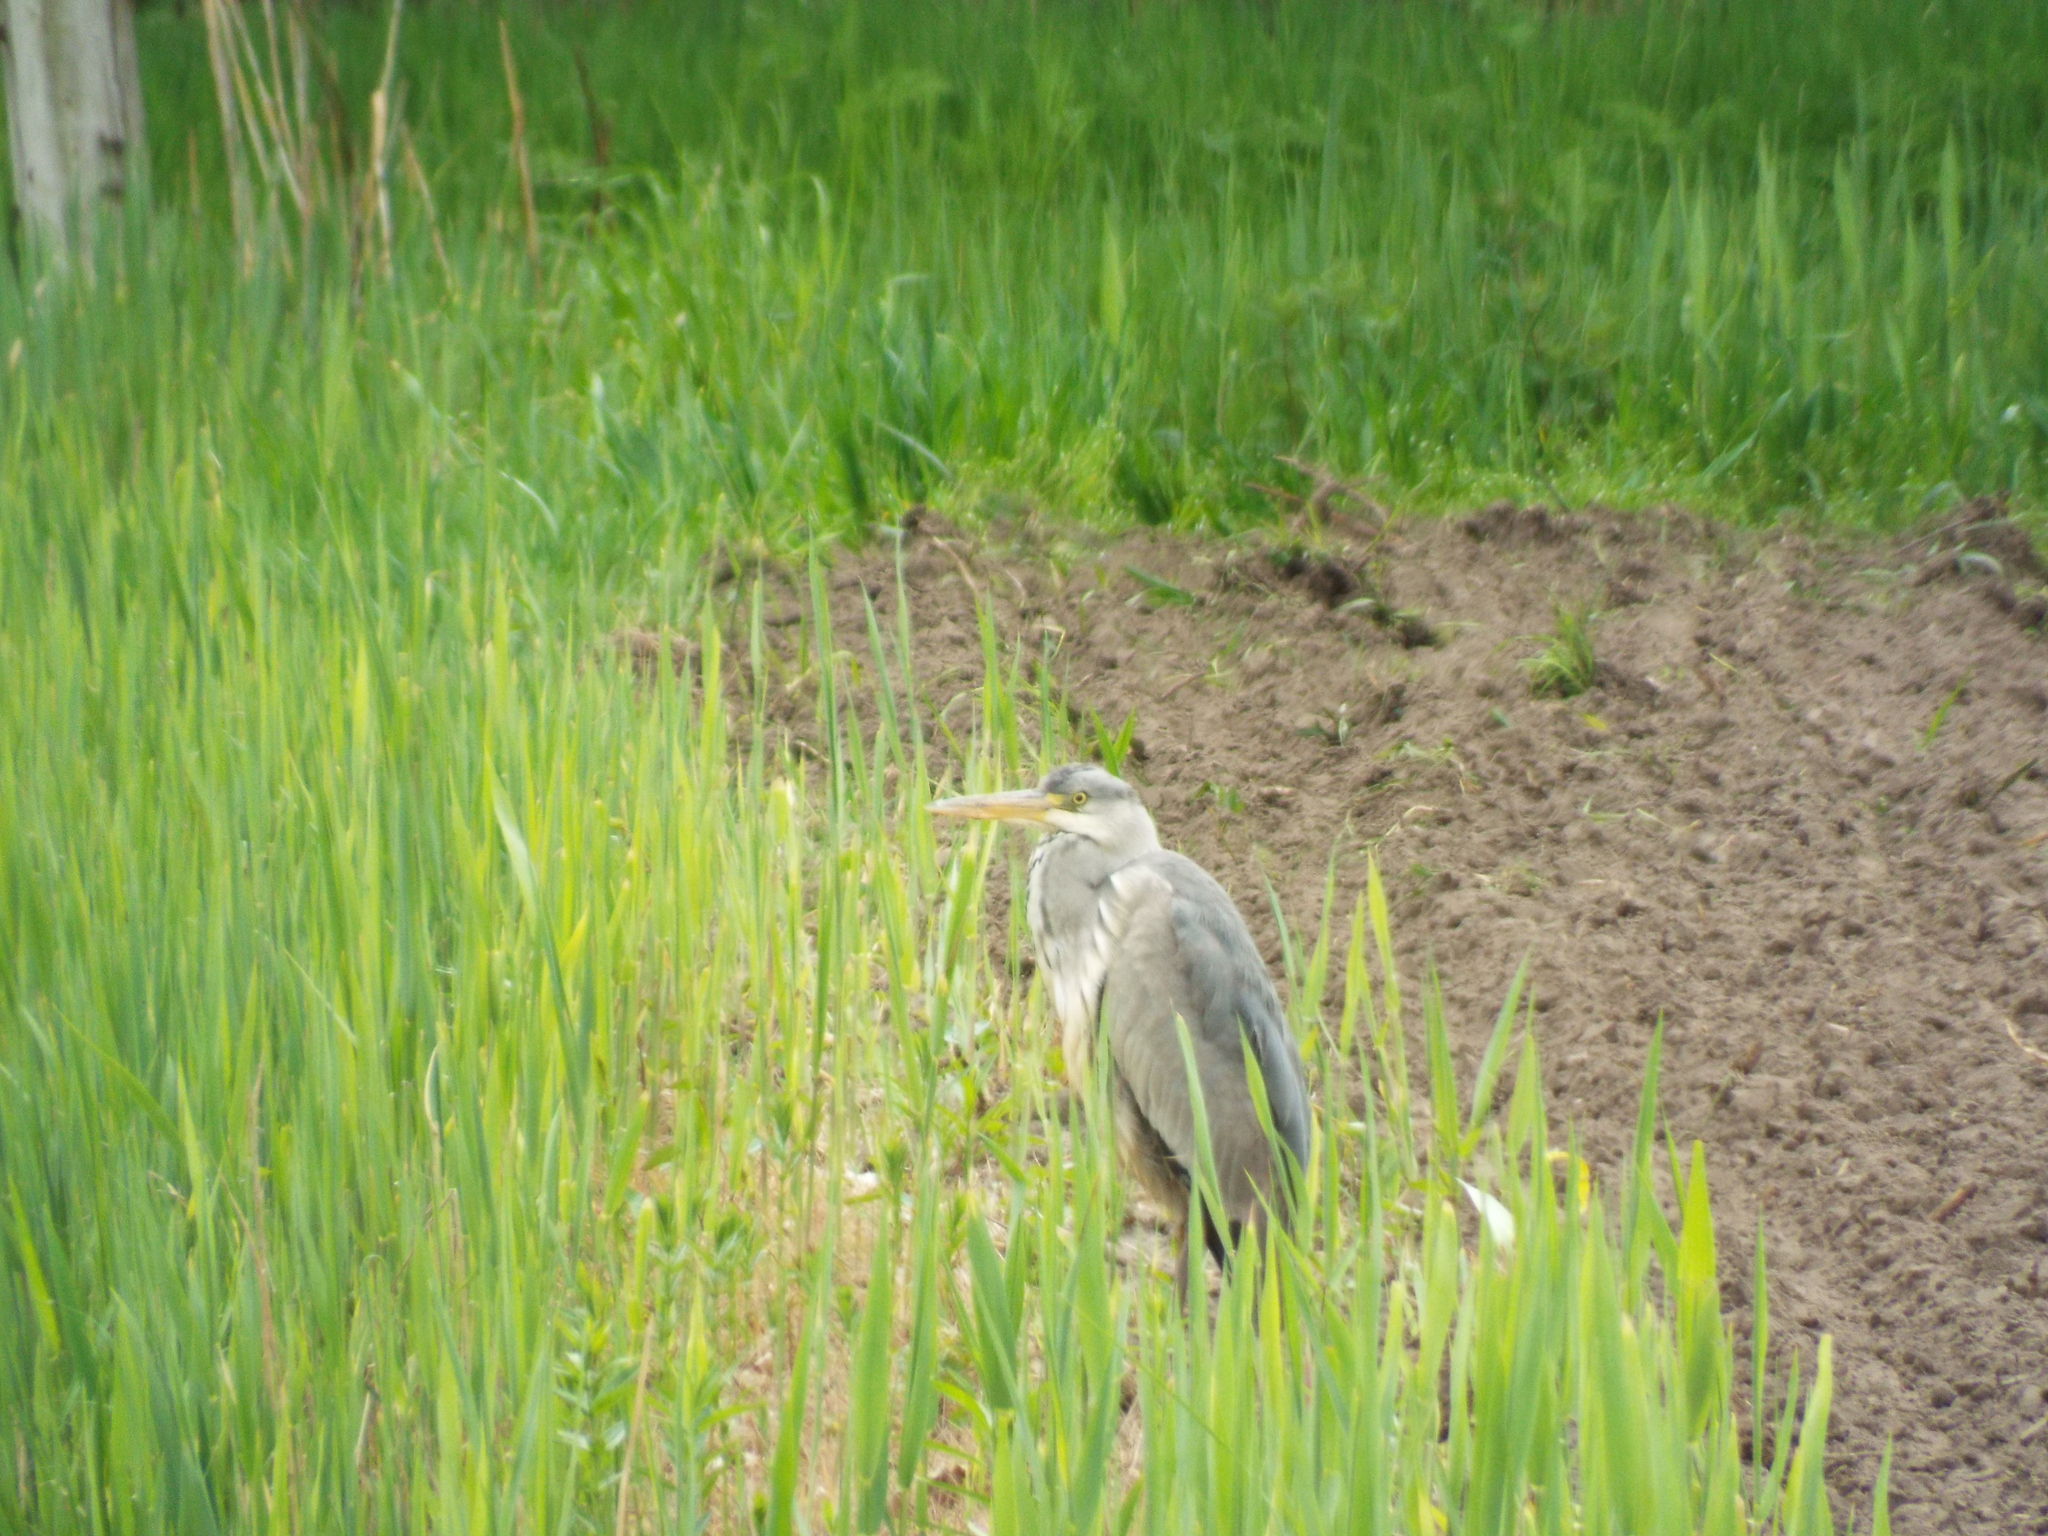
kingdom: Animalia
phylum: Chordata
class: Aves
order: Pelecaniformes
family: Ardeidae
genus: Ardea
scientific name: Ardea cinerea
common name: Grey heron
